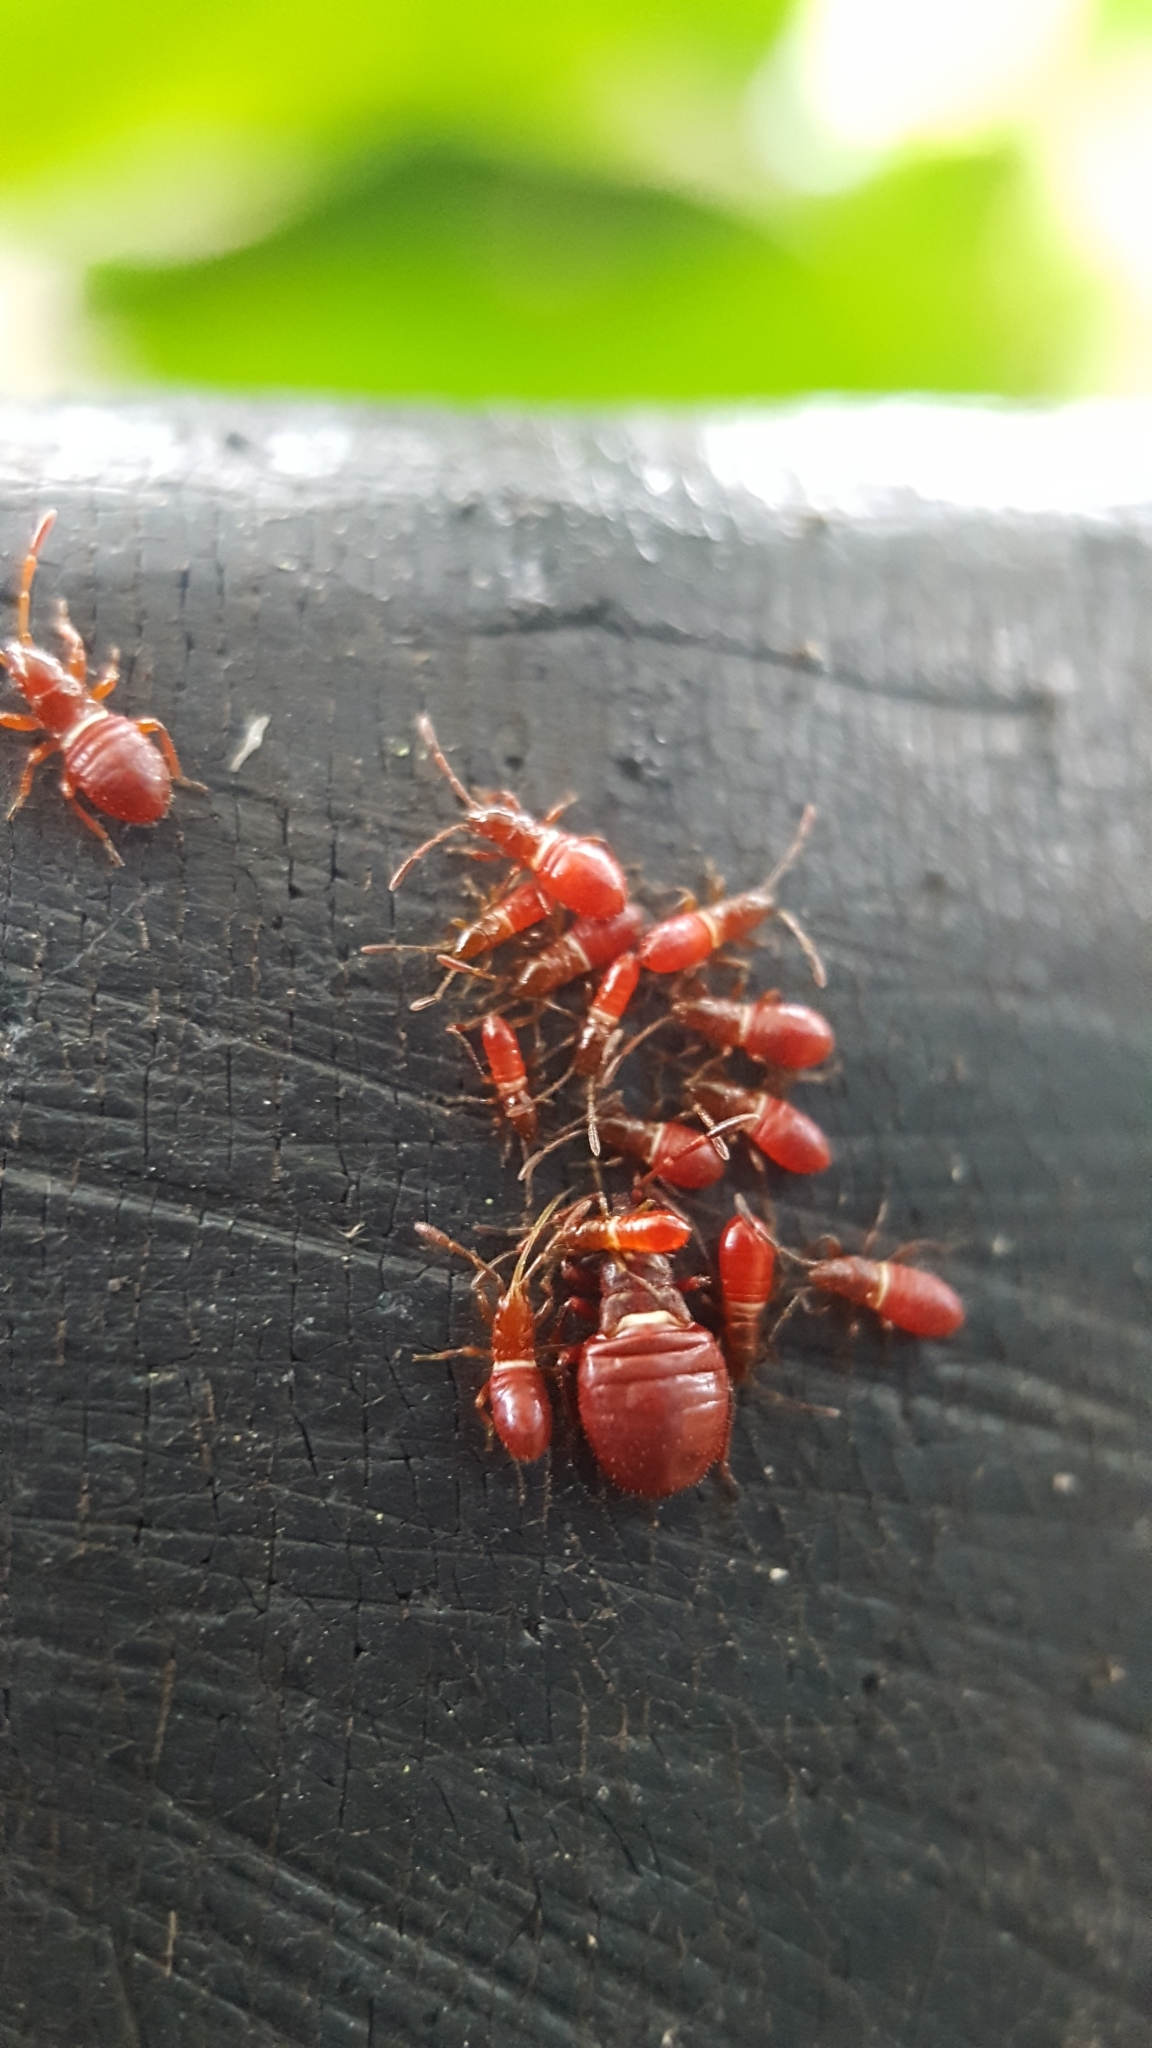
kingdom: Animalia
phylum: Arthropoda
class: Insecta
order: Hemiptera
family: Oxycarenidae
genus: Oxycarenus
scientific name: Oxycarenus lavaterae
